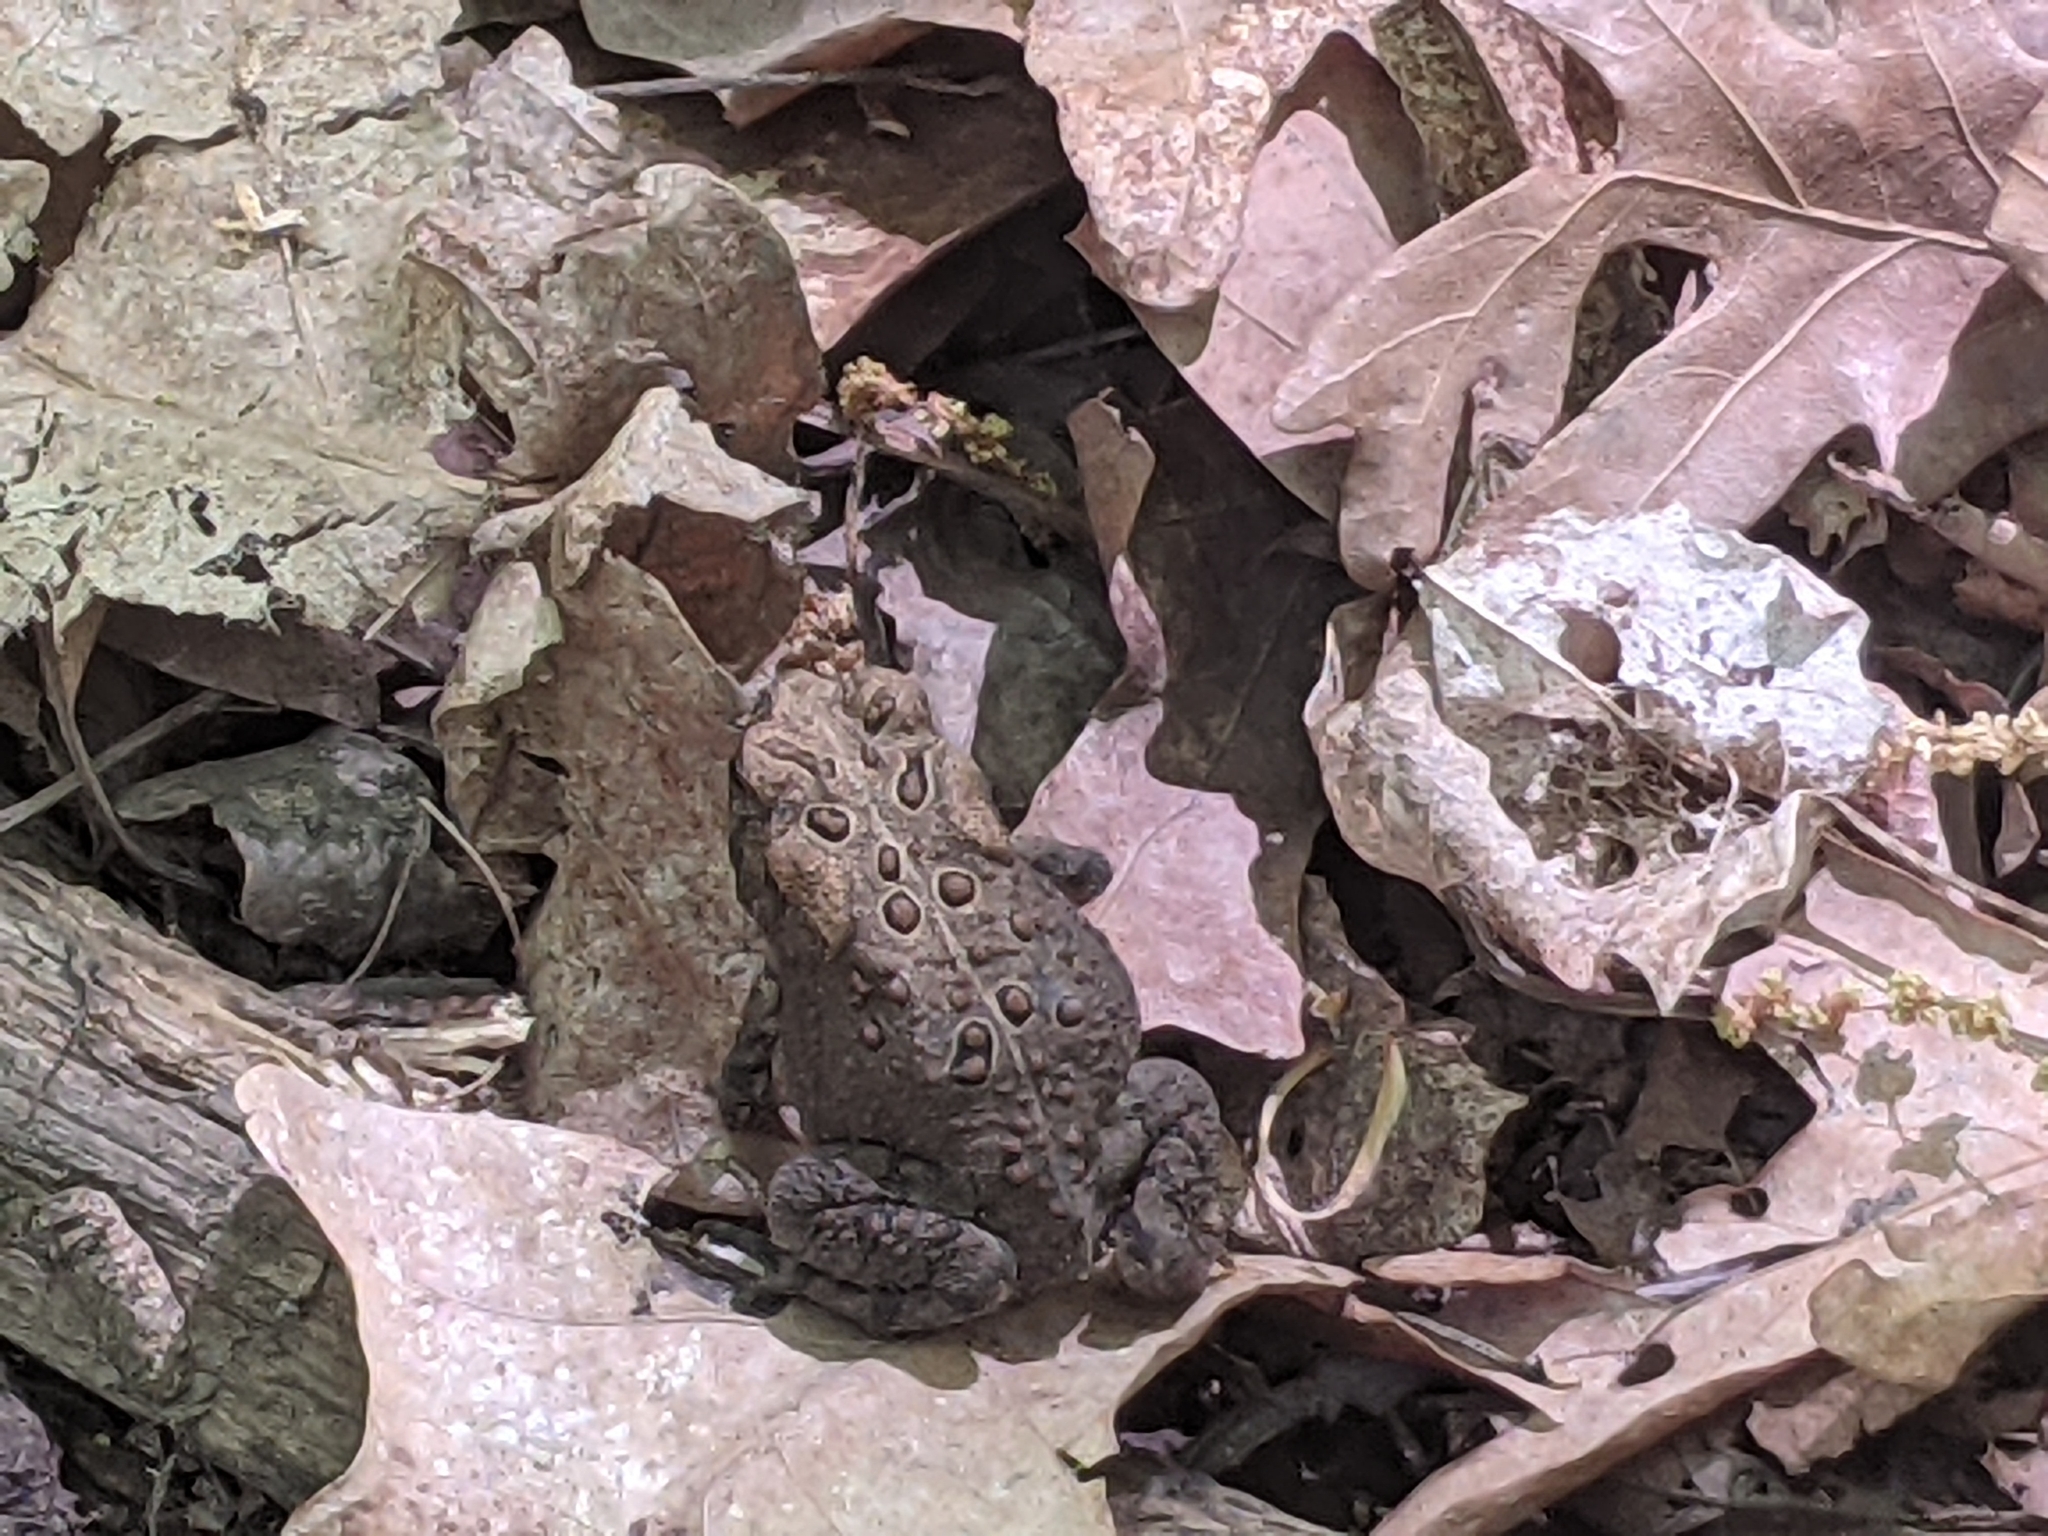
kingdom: Animalia
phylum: Chordata
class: Amphibia
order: Anura
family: Bufonidae
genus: Anaxyrus
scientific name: Anaxyrus americanus
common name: American toad
